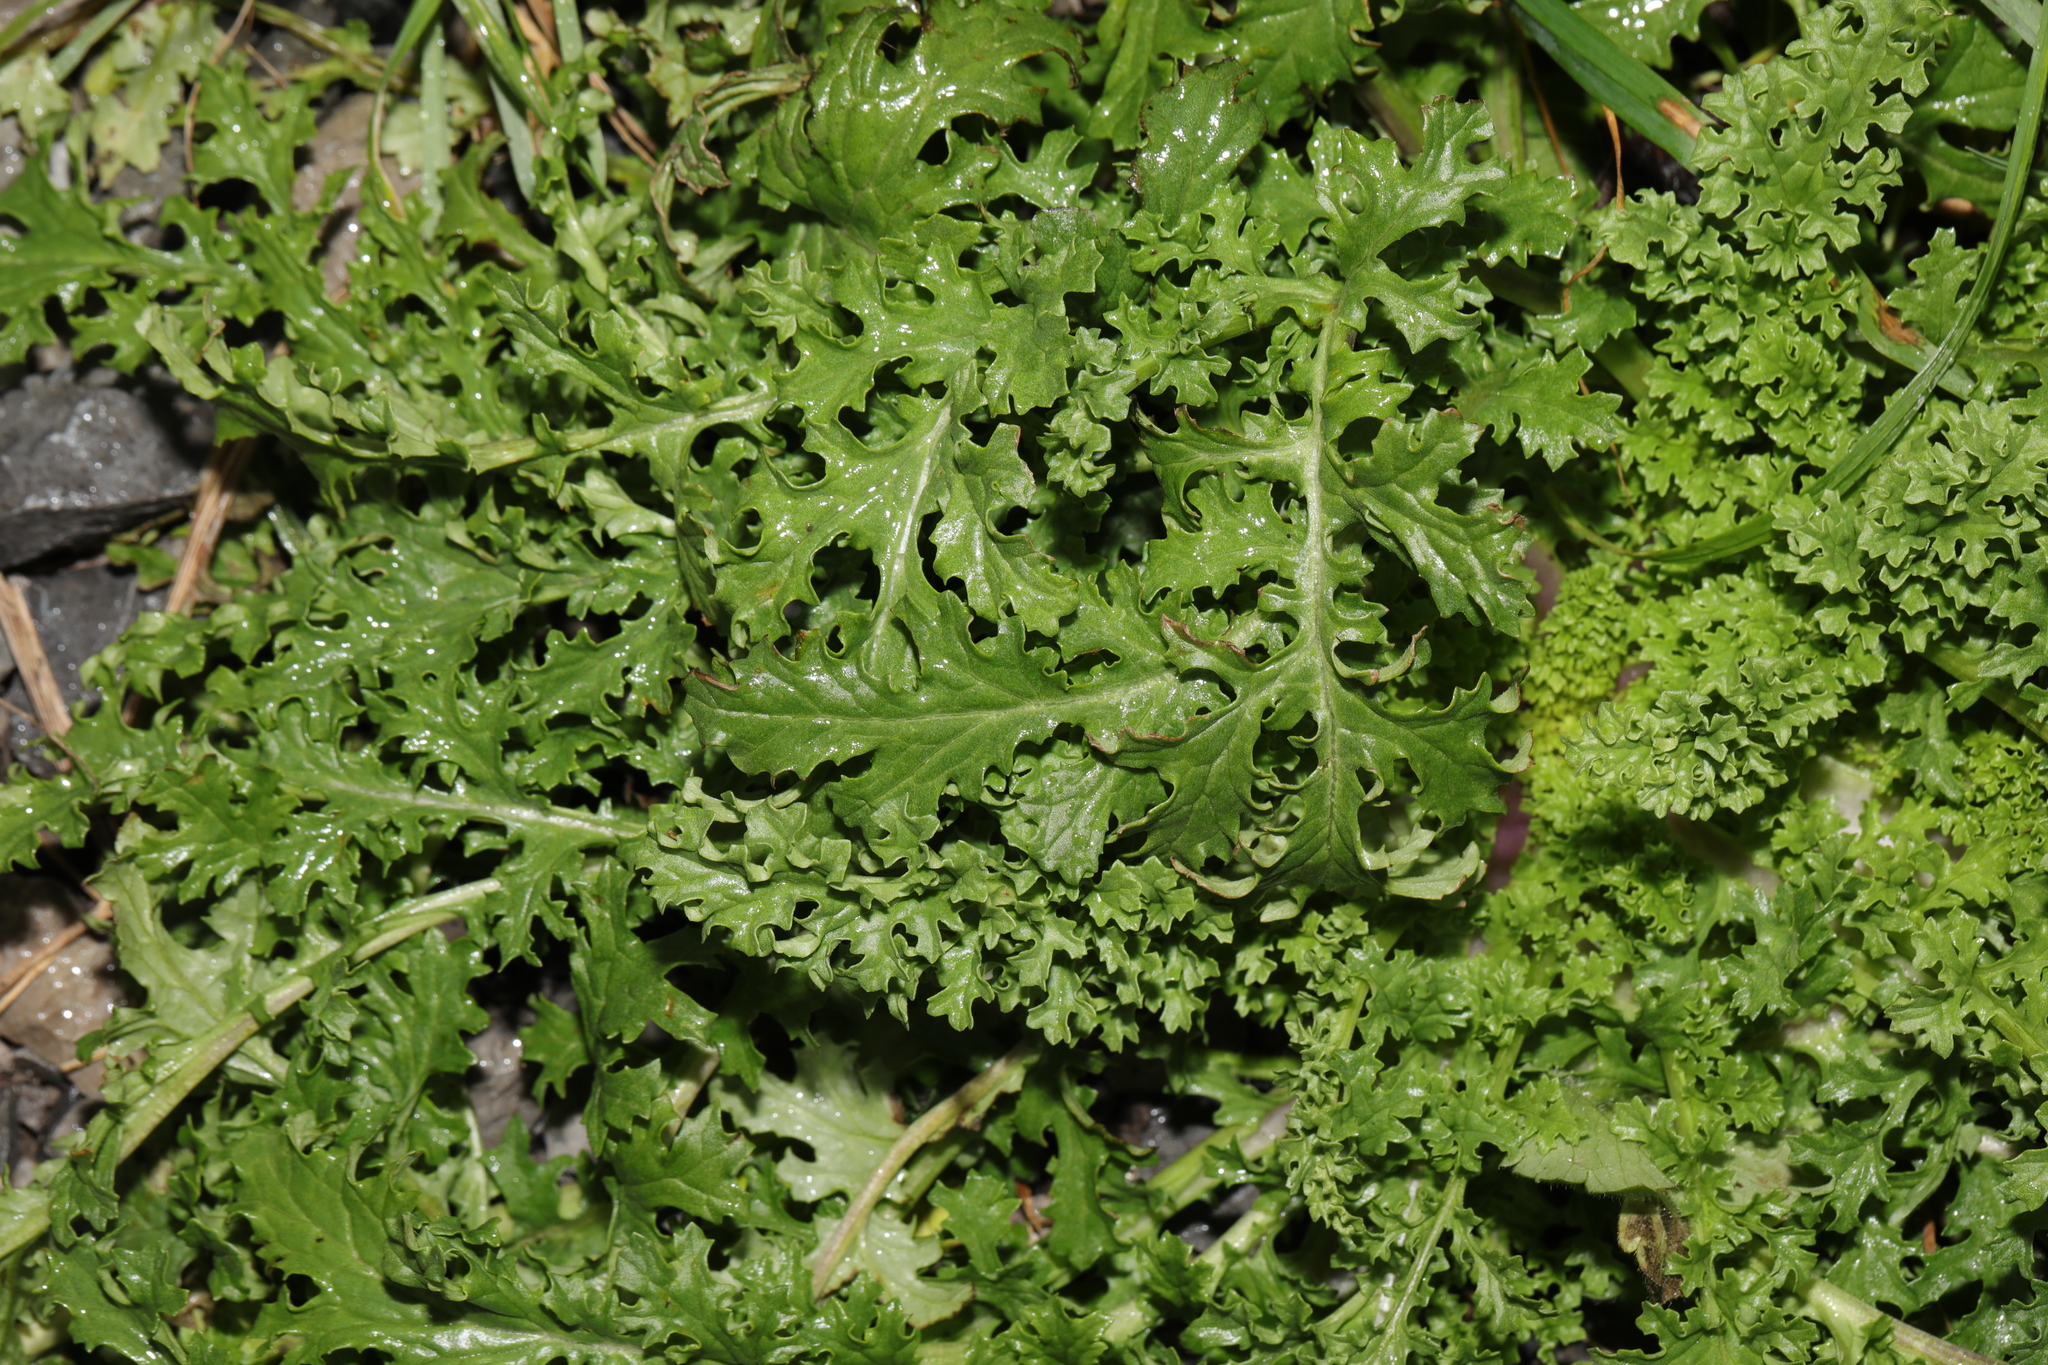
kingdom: Plantae
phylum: Tracheophyta
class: Magnoliopsida
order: Asterales
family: Asteraceae
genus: Jacobaea
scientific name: Jacobaea vulgaris
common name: Stinking willie
